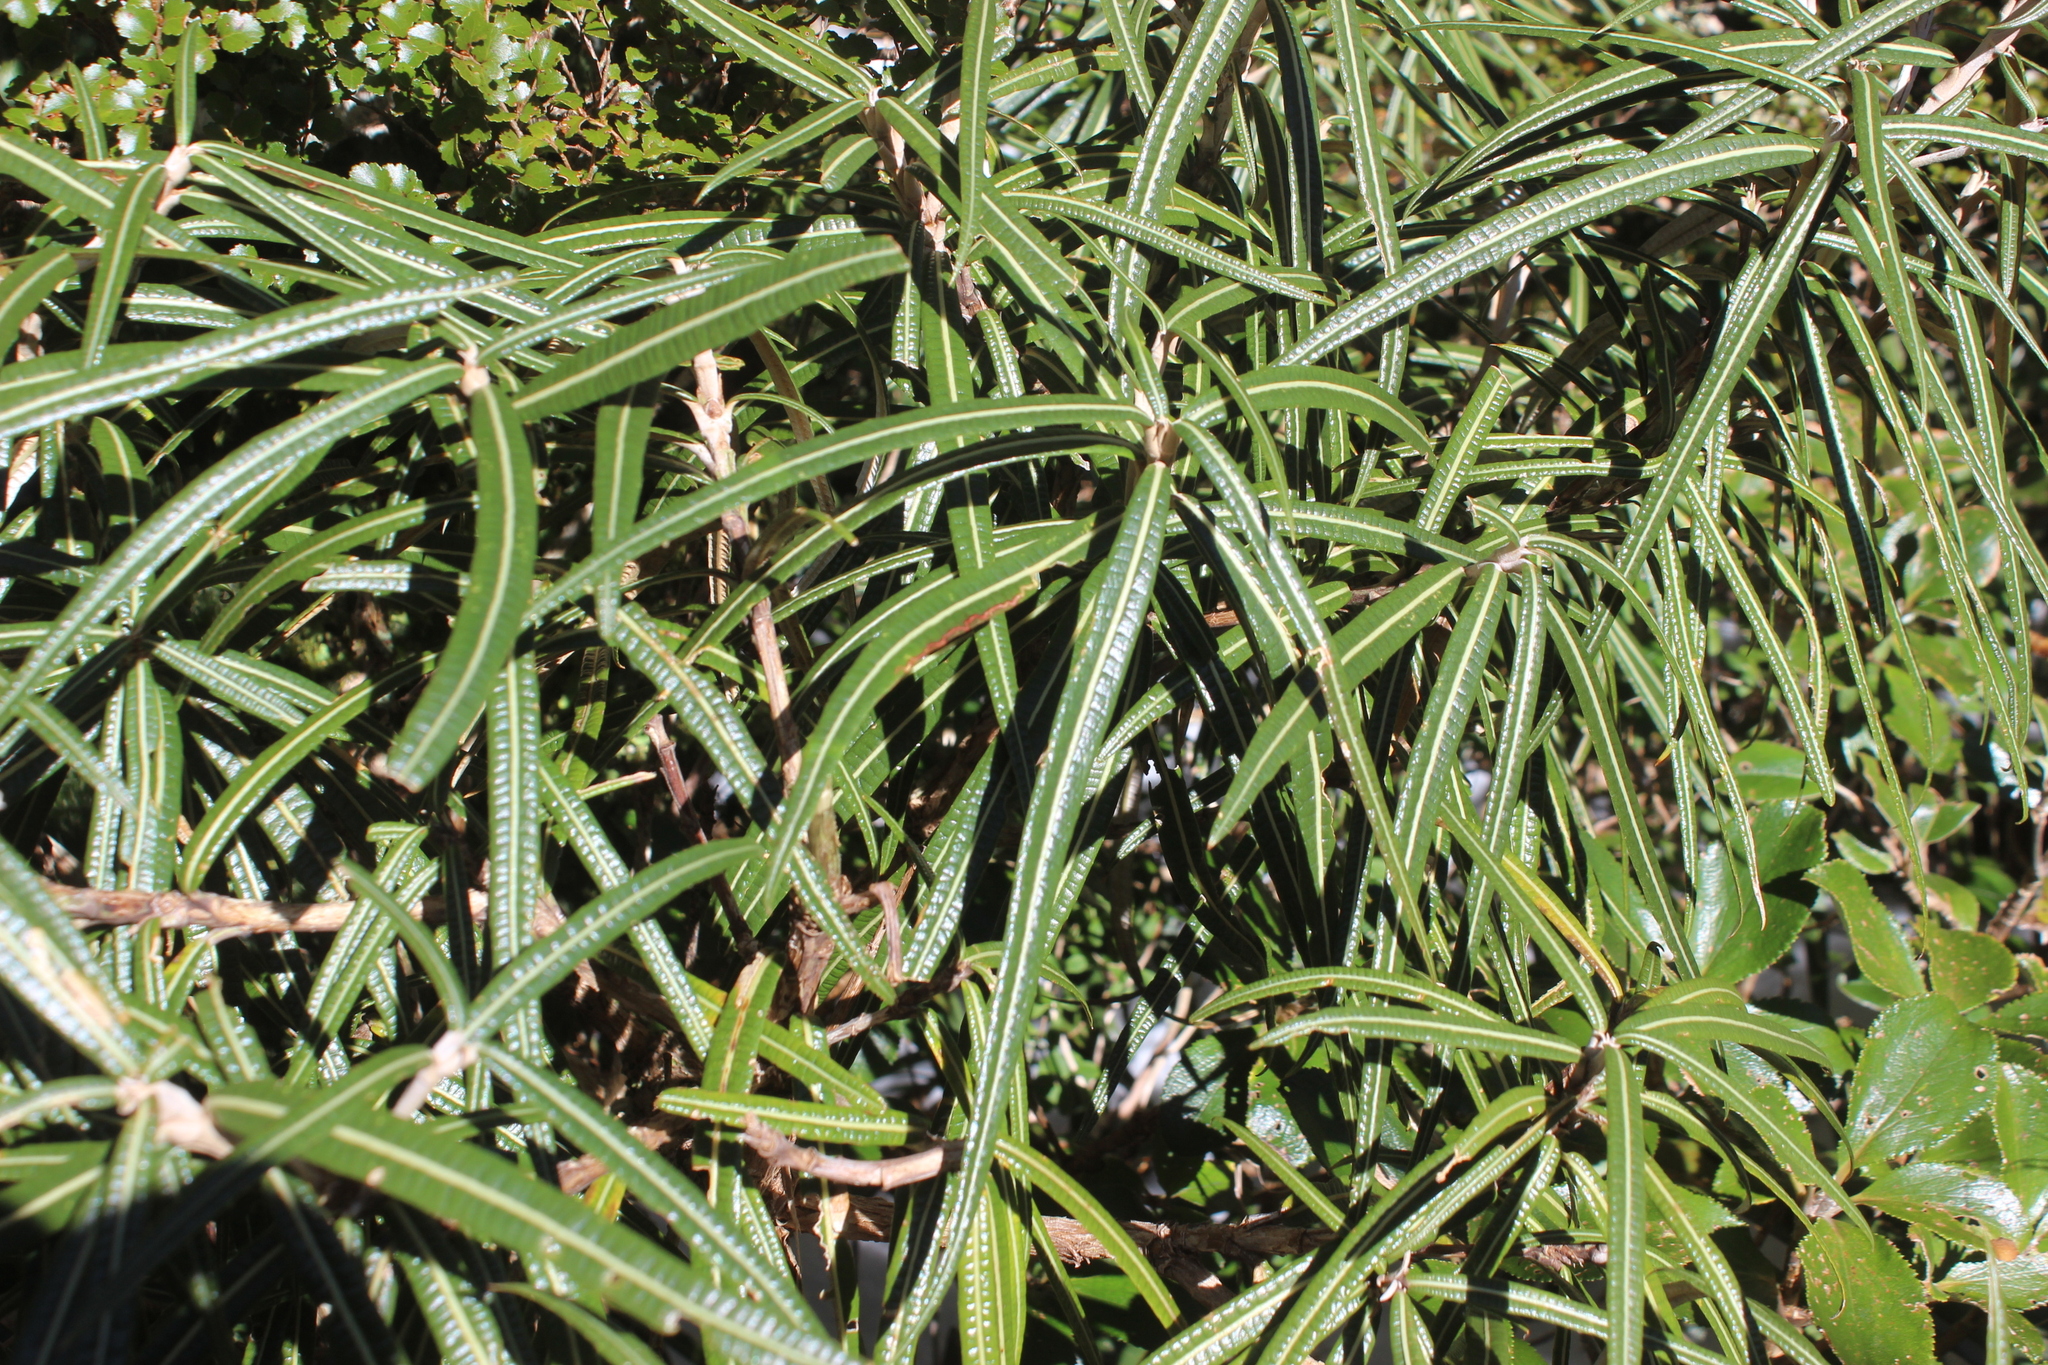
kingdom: Plantae
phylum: Tracheophyta
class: Magnoliopsida
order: Asterales
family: Asteraceae
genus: Olearia
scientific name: Olearia lacunosa
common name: Lancewood tree daisy
